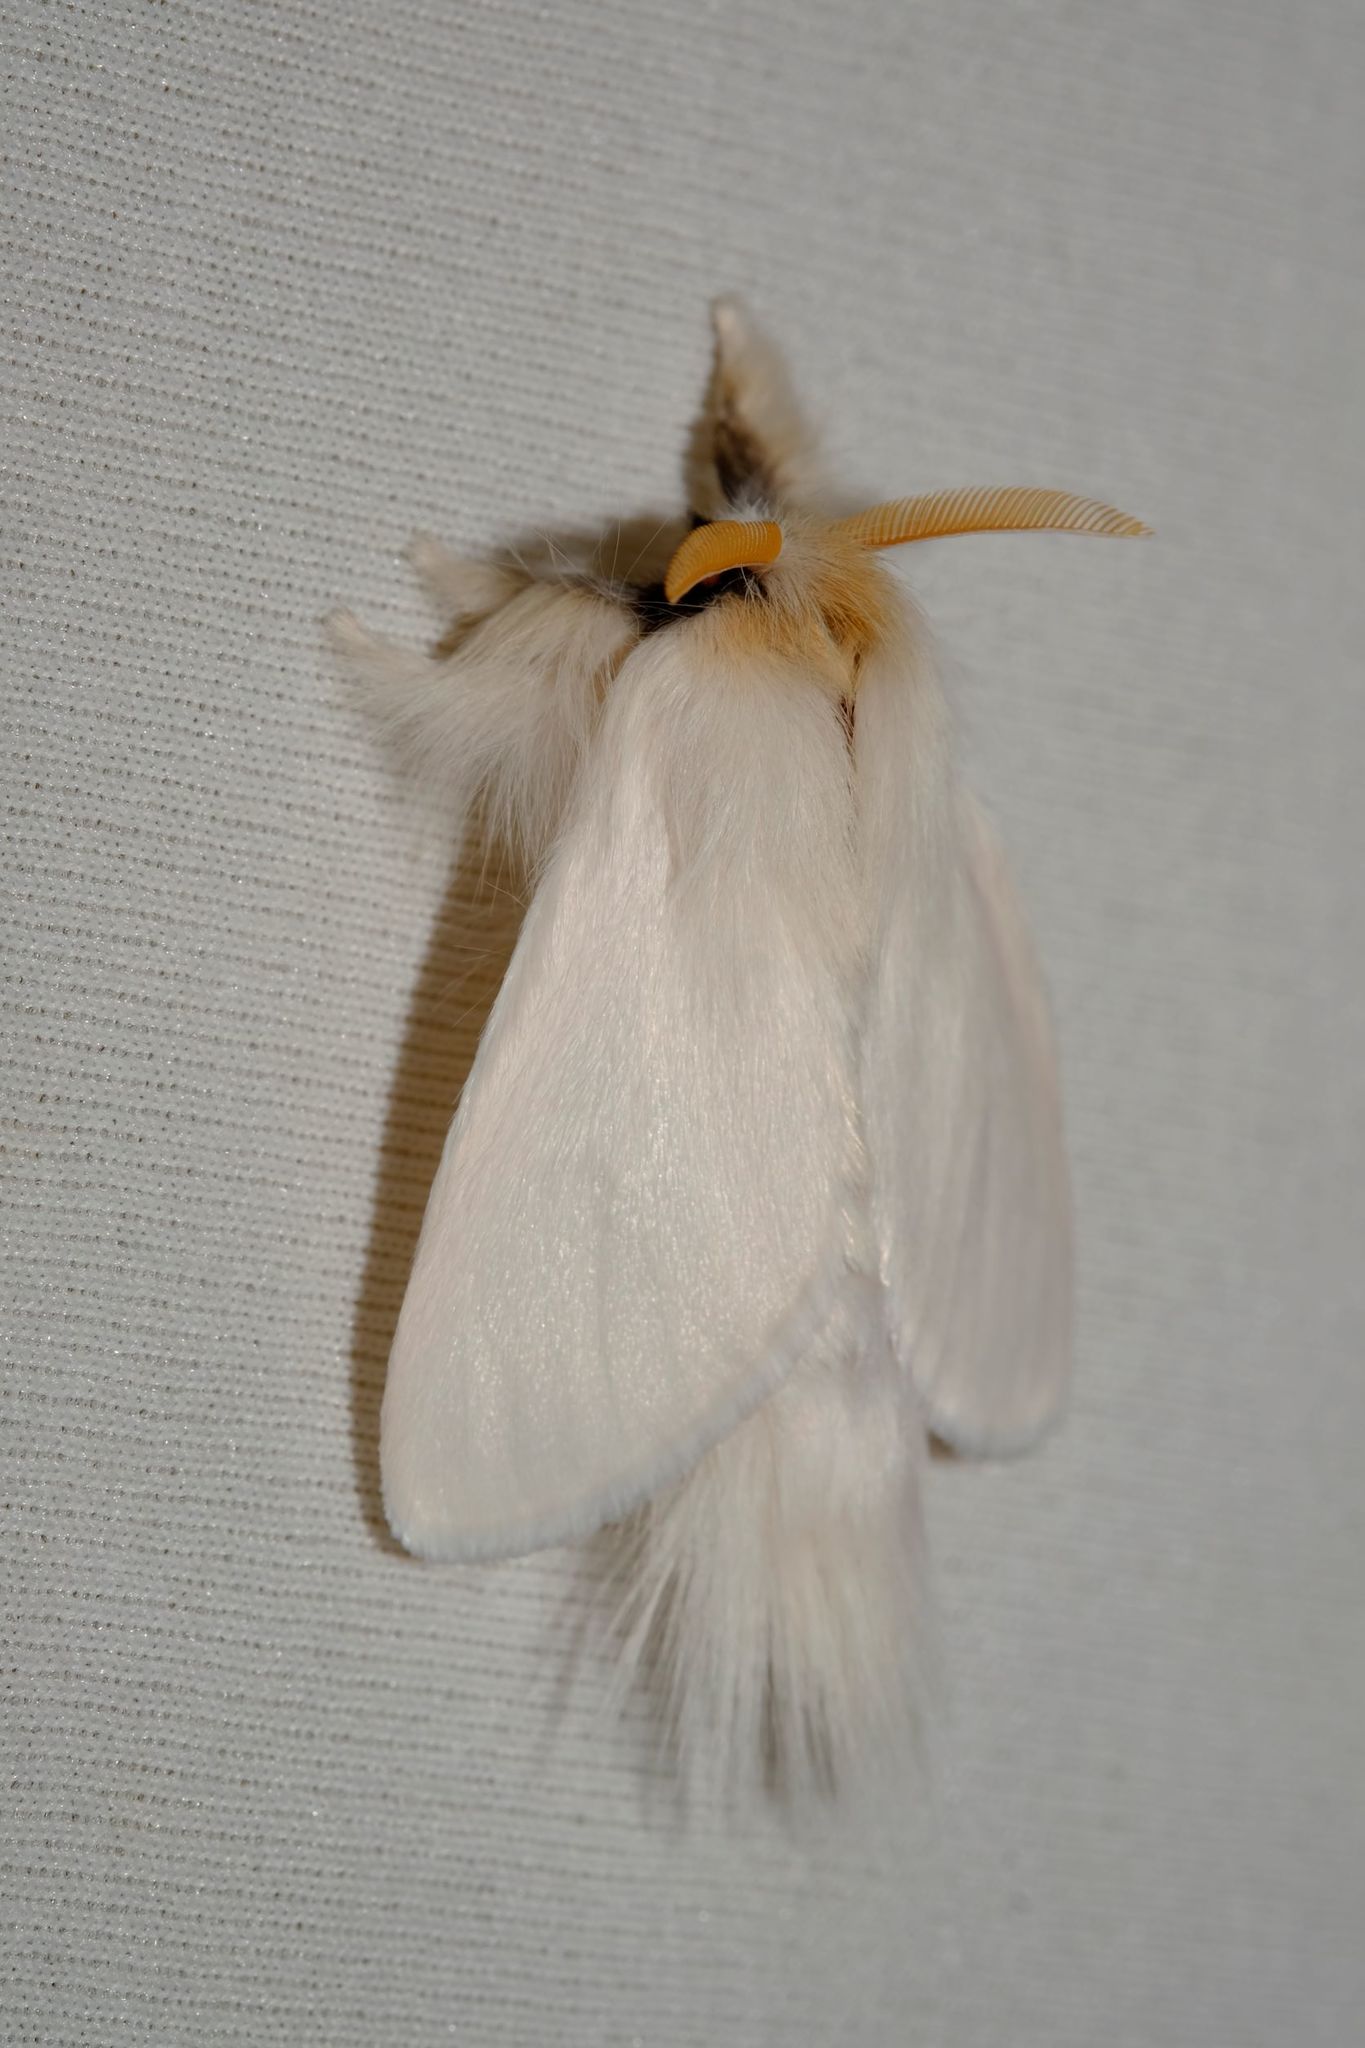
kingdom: Animalia
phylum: Arthropoda
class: Insecta
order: Lepidoptera
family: Notodontidae
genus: Trichiocercus
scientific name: Trichiocercus sparshalli
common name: Long-tailed satin
